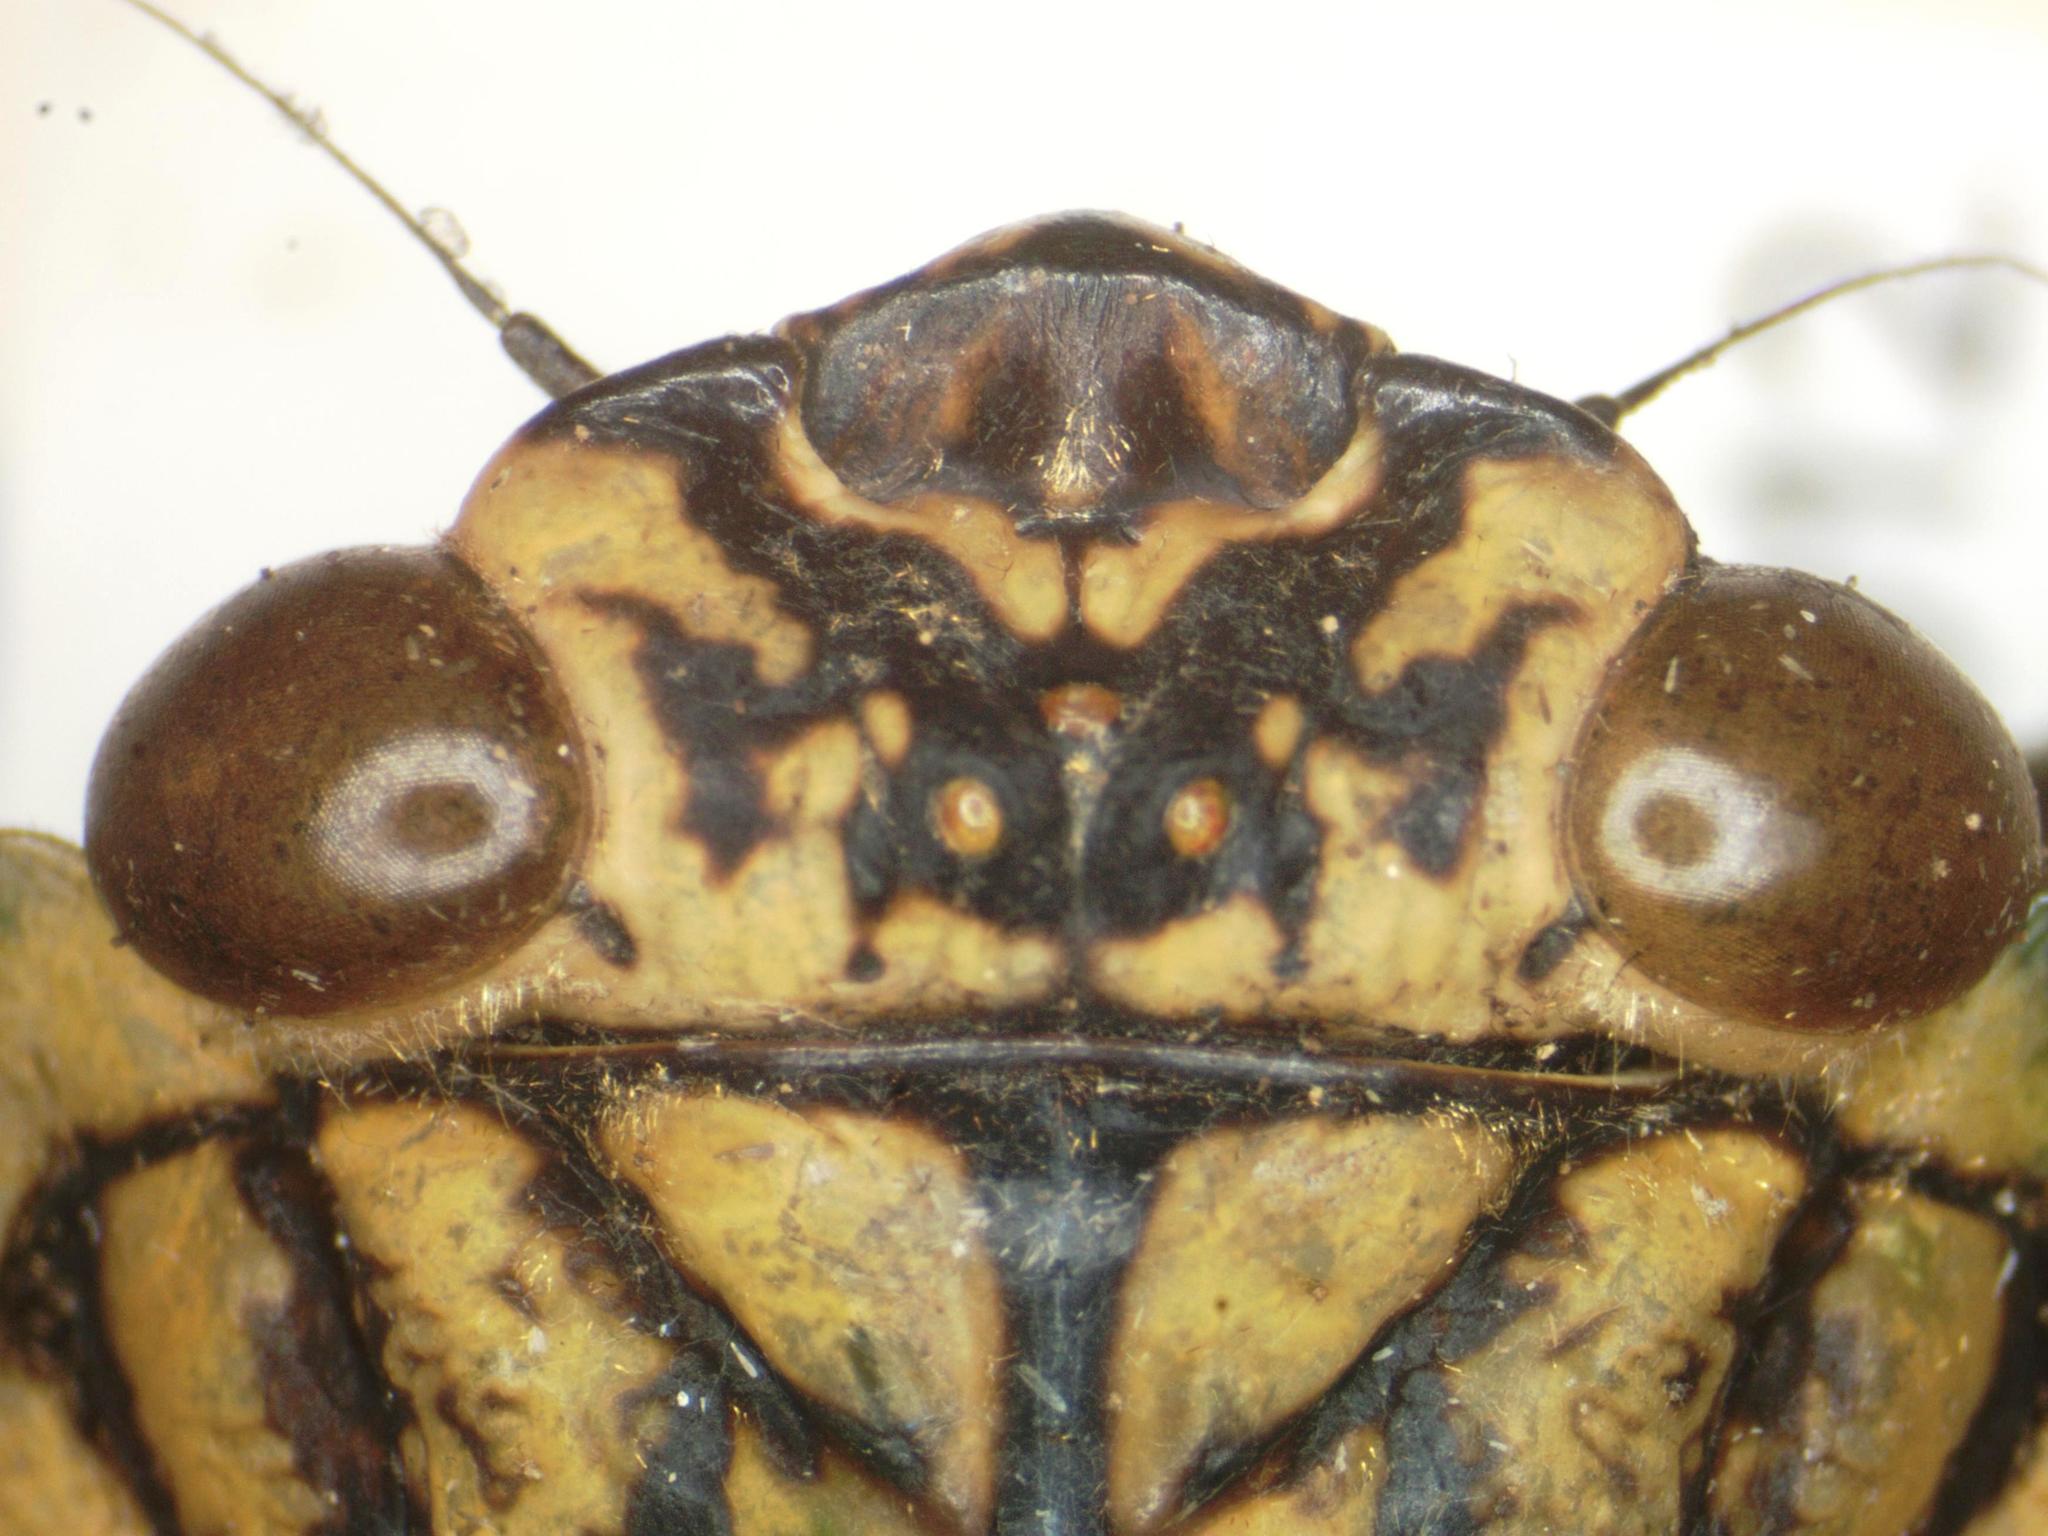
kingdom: Animalia
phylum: Arthropoda
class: Insecta
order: Hemiptera
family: Cicadidae
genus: Zammara
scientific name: Zammara smaragdina
